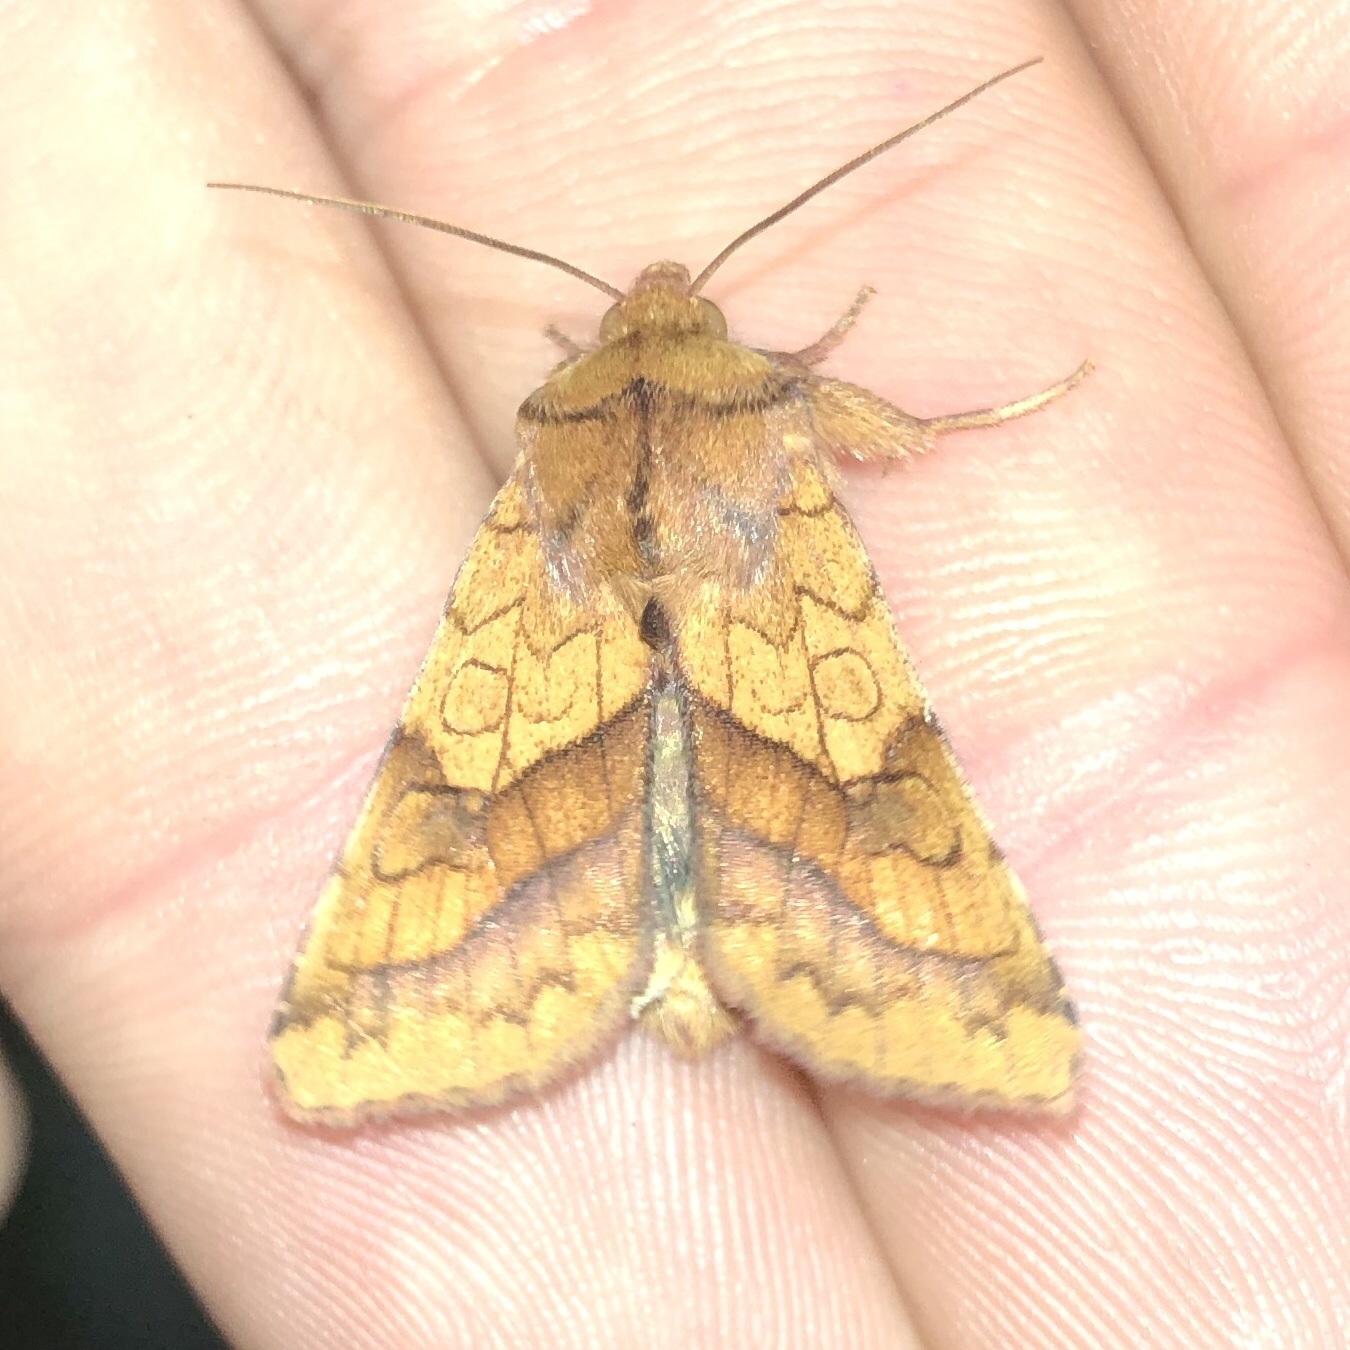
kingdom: Animalia
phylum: Arthropoda
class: Insecta
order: Lepidoptera
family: Noctuidae
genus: Pyrrhia
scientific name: Pyrrhia exprimens
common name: Purple-lined sallow
